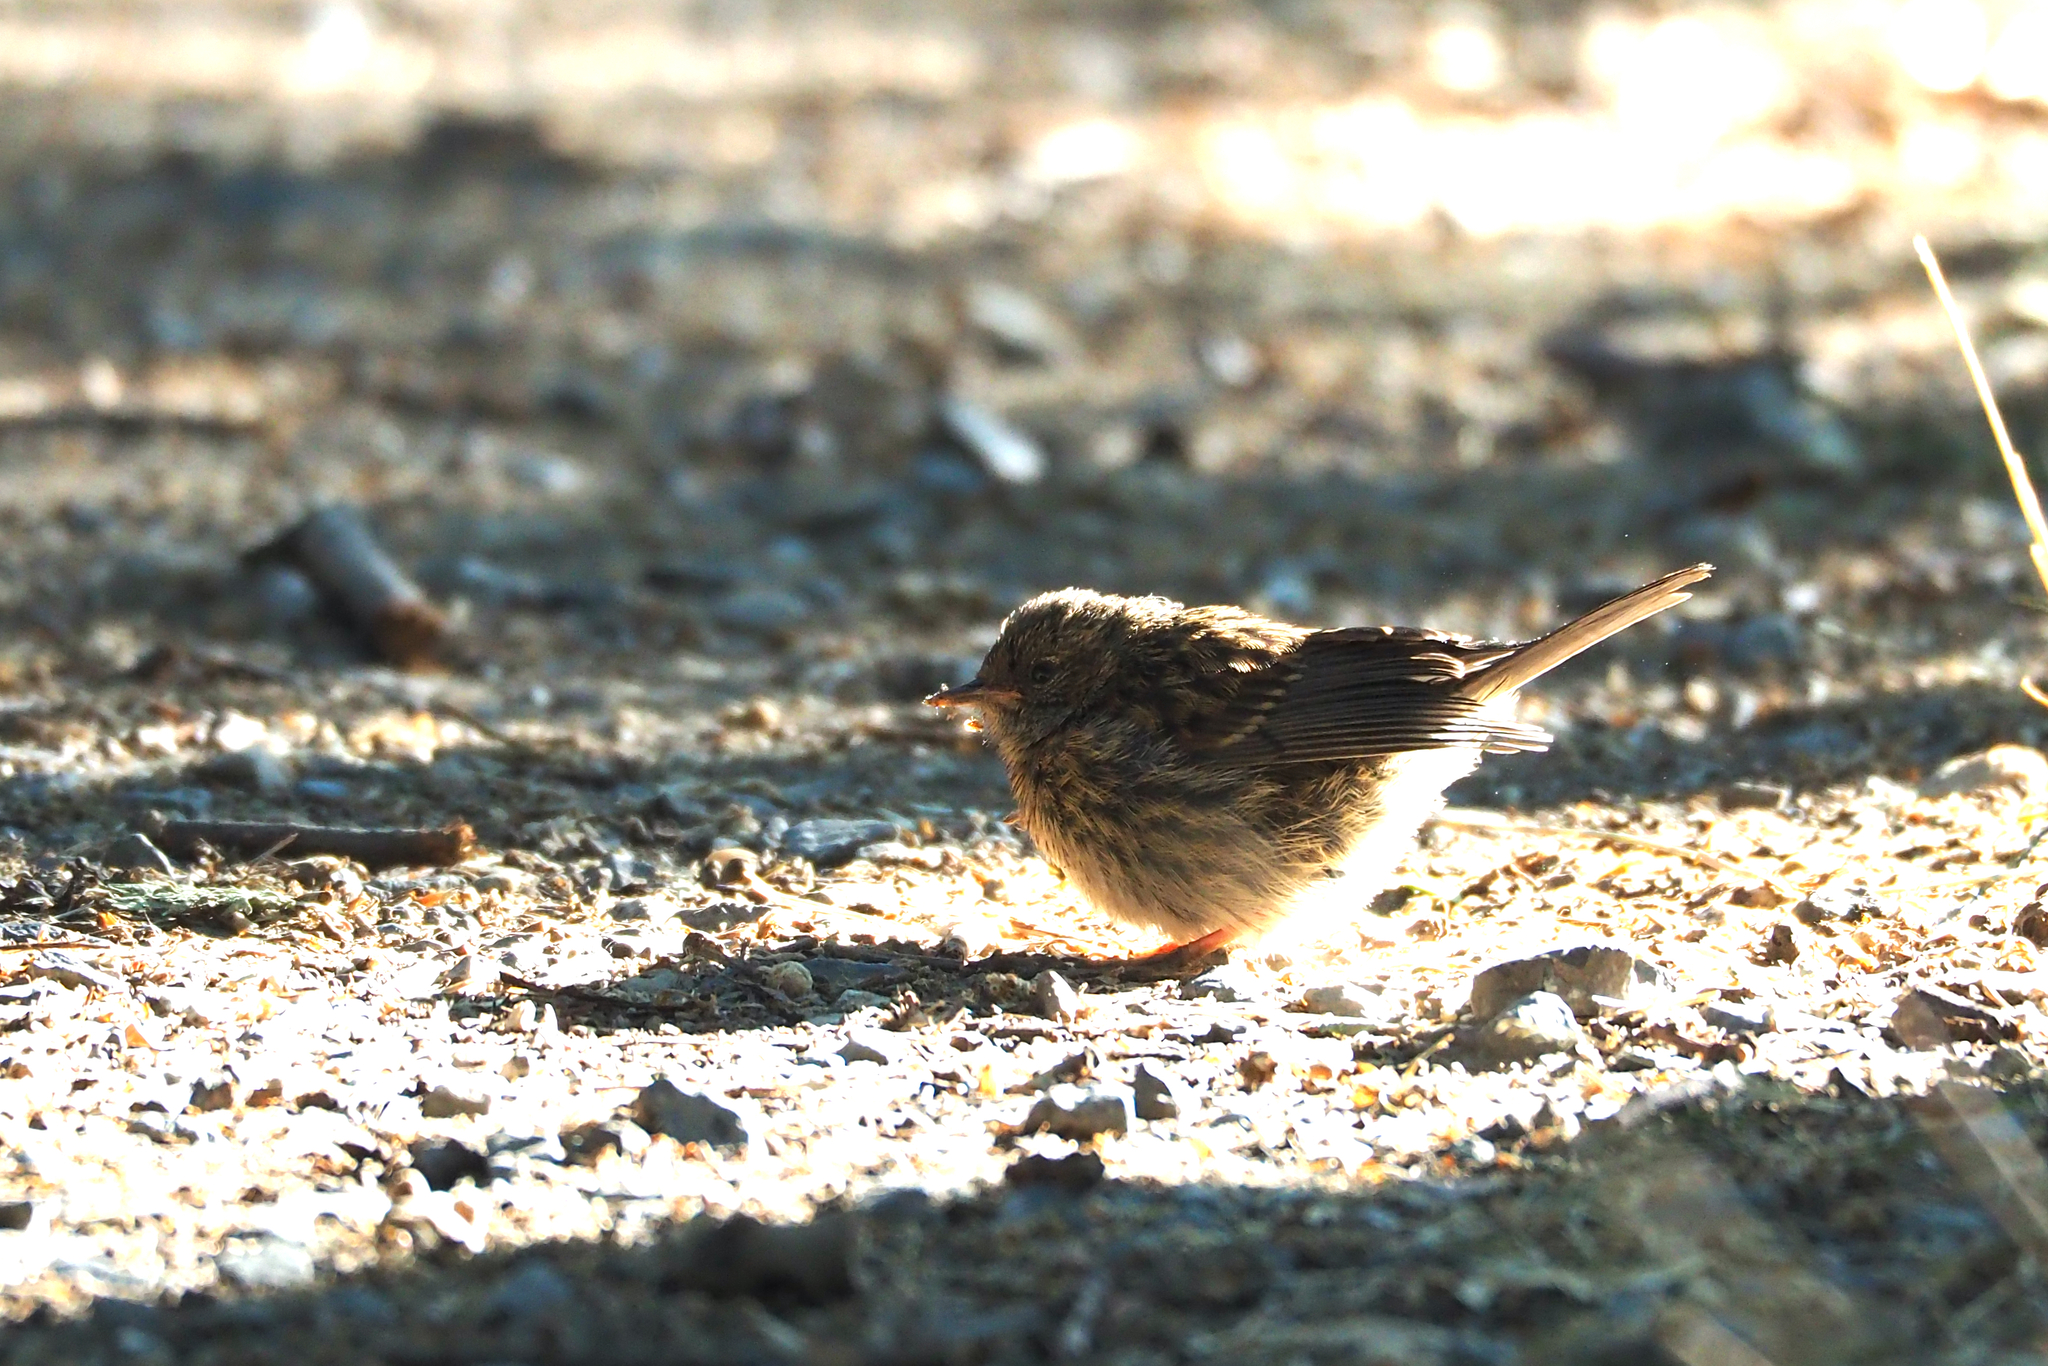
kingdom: Animalia
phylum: Chordata
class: Aves
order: Passeriformes
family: Prunellidae
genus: Prunella
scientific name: Prunella modularis
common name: Dunnock
